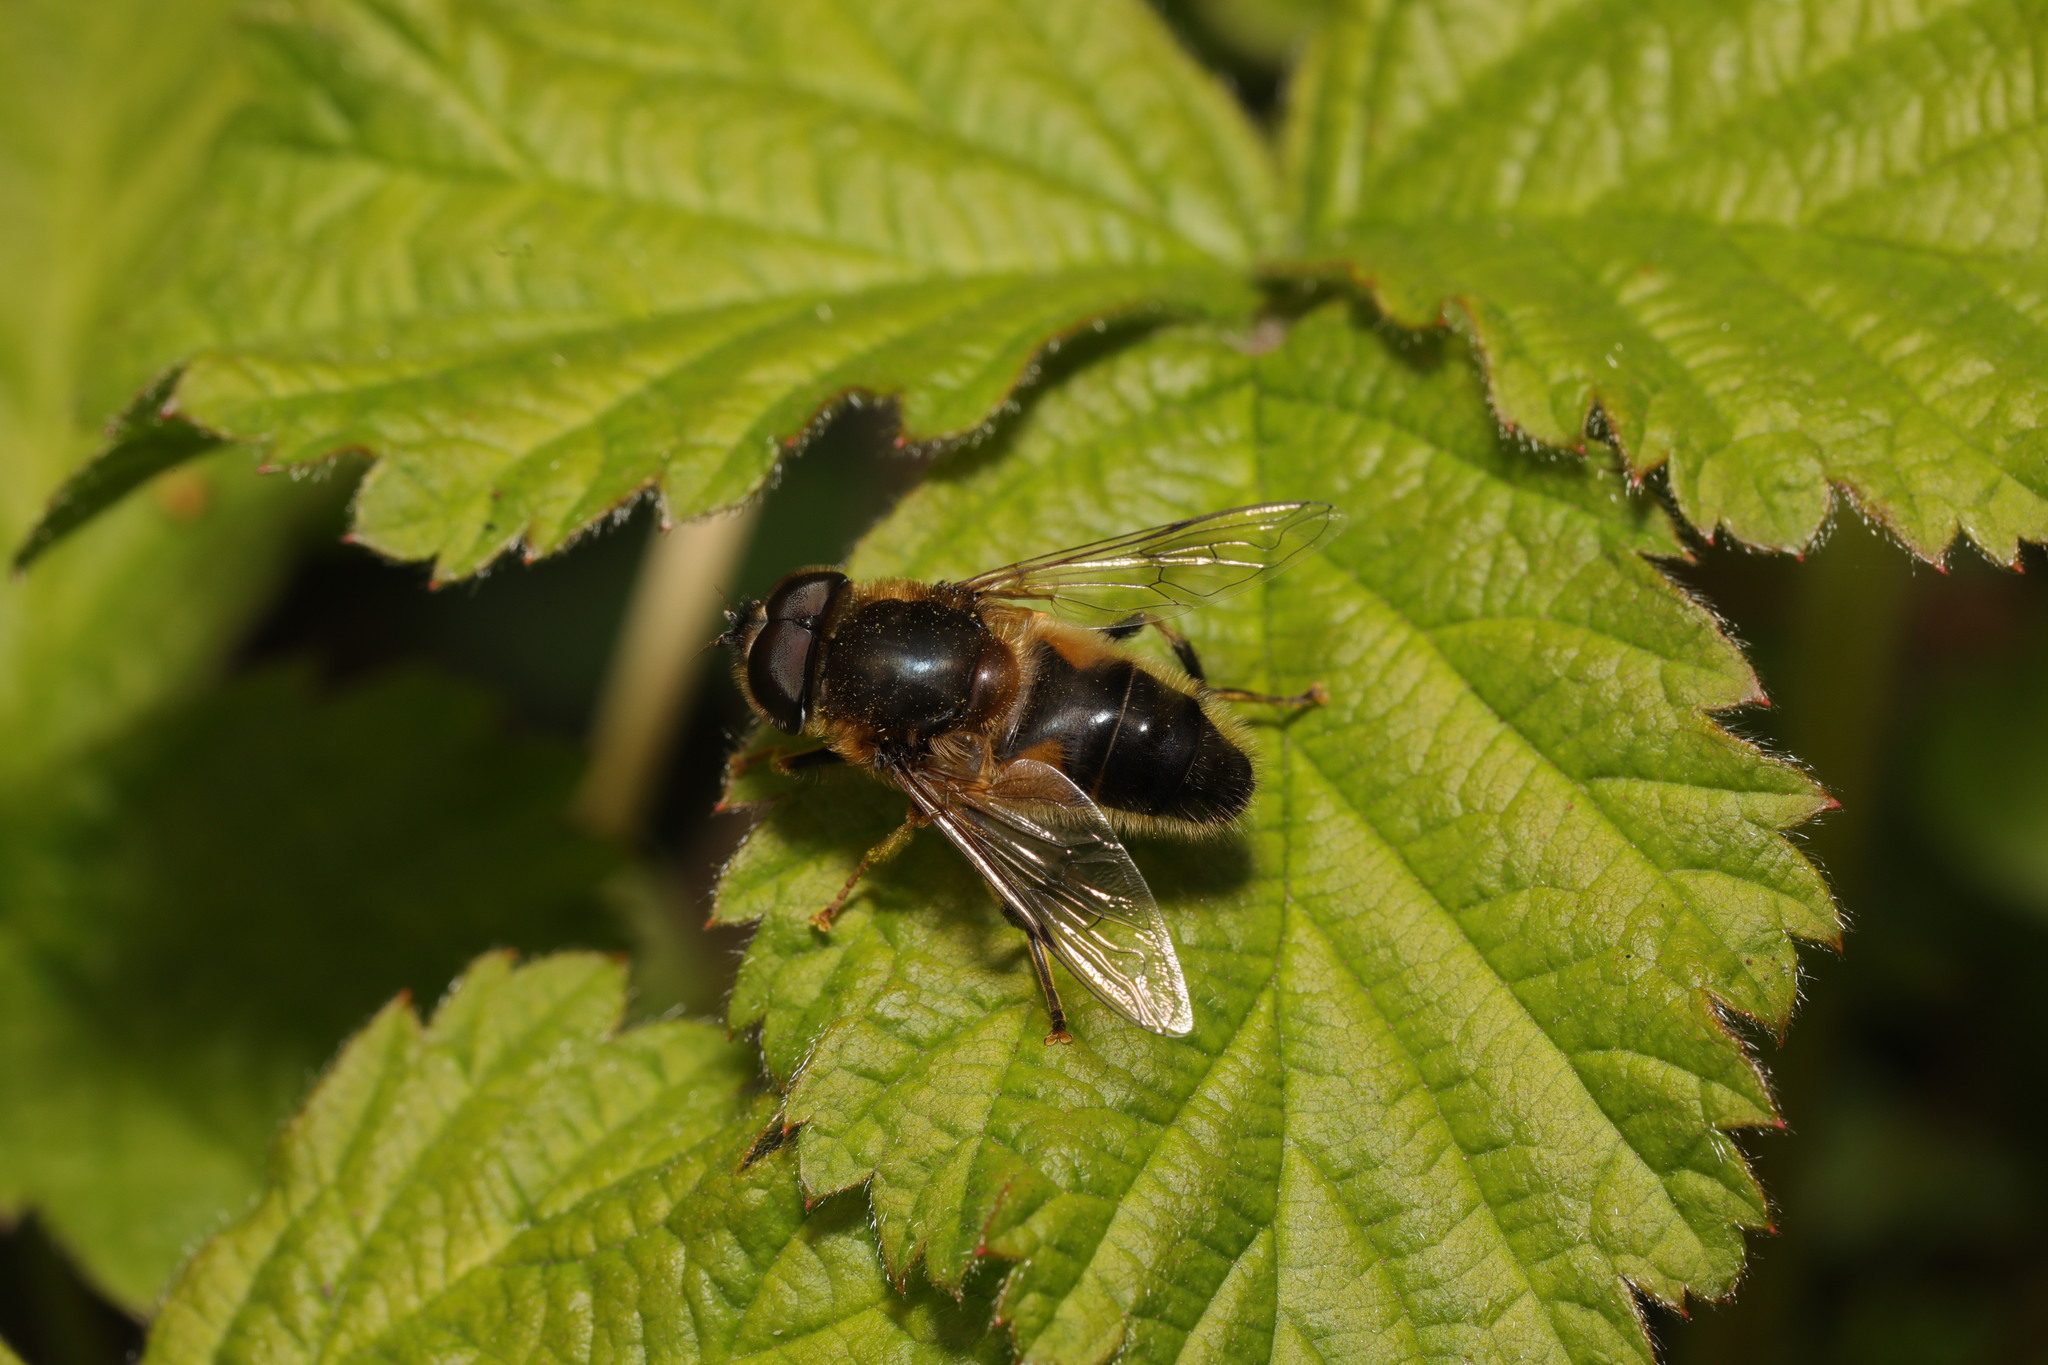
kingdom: Animalia
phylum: Arthropoda
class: Insecta
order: Diptera
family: Syrphidae
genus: Eristalis
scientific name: Eristalis pertinax
